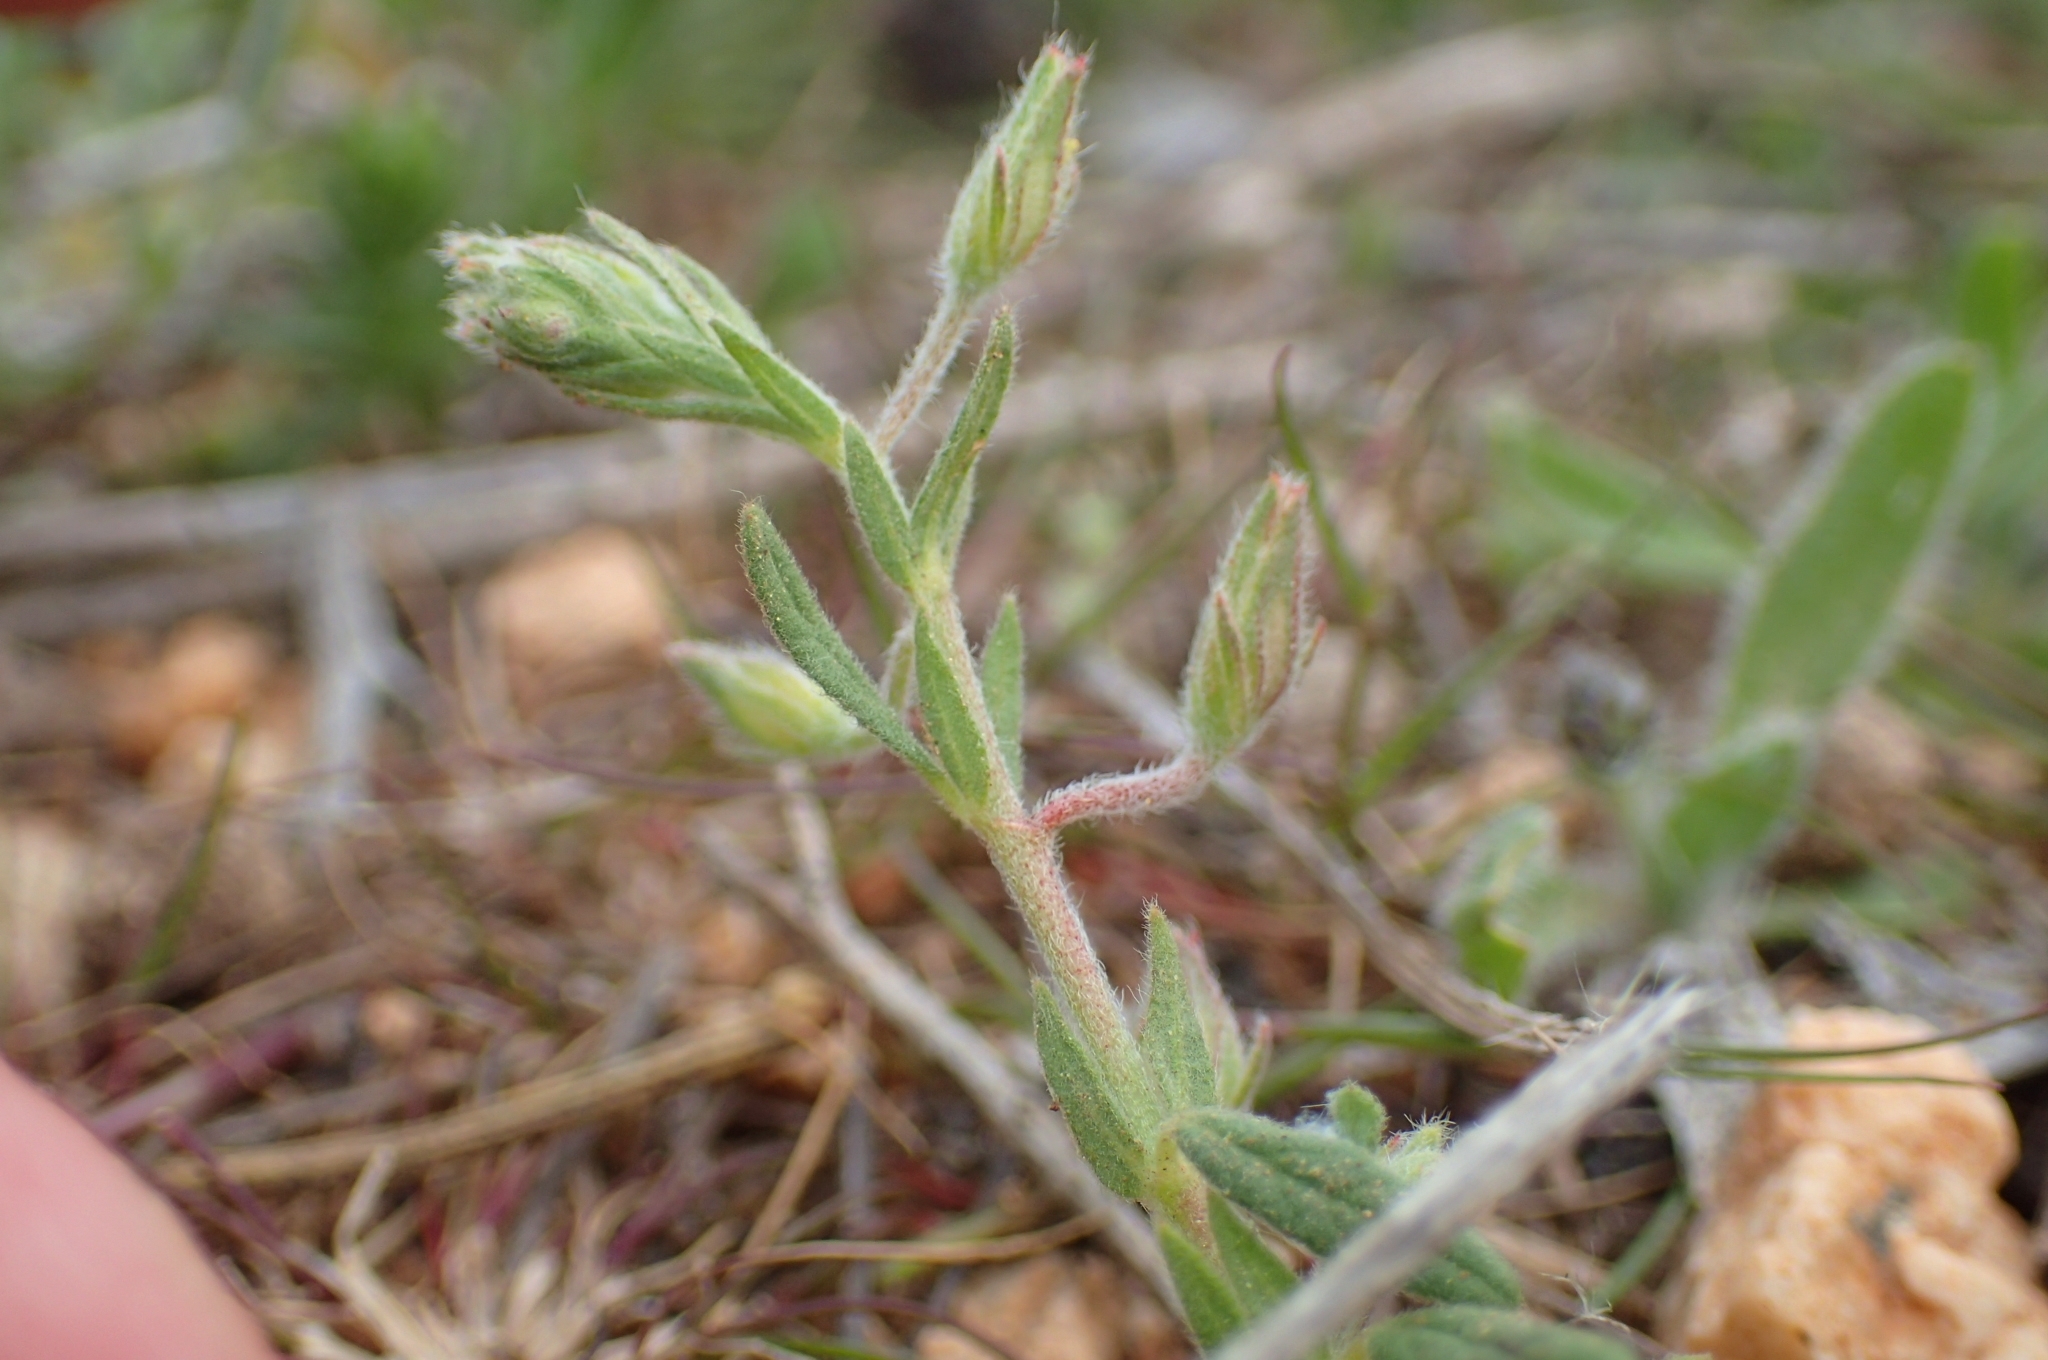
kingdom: Plantae
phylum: Tracheophyta
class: Magnoliopsida
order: Malvales
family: Cistaceae
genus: Helianthemum
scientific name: Helianthemum salicifolium
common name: Willowleaf frostweed
